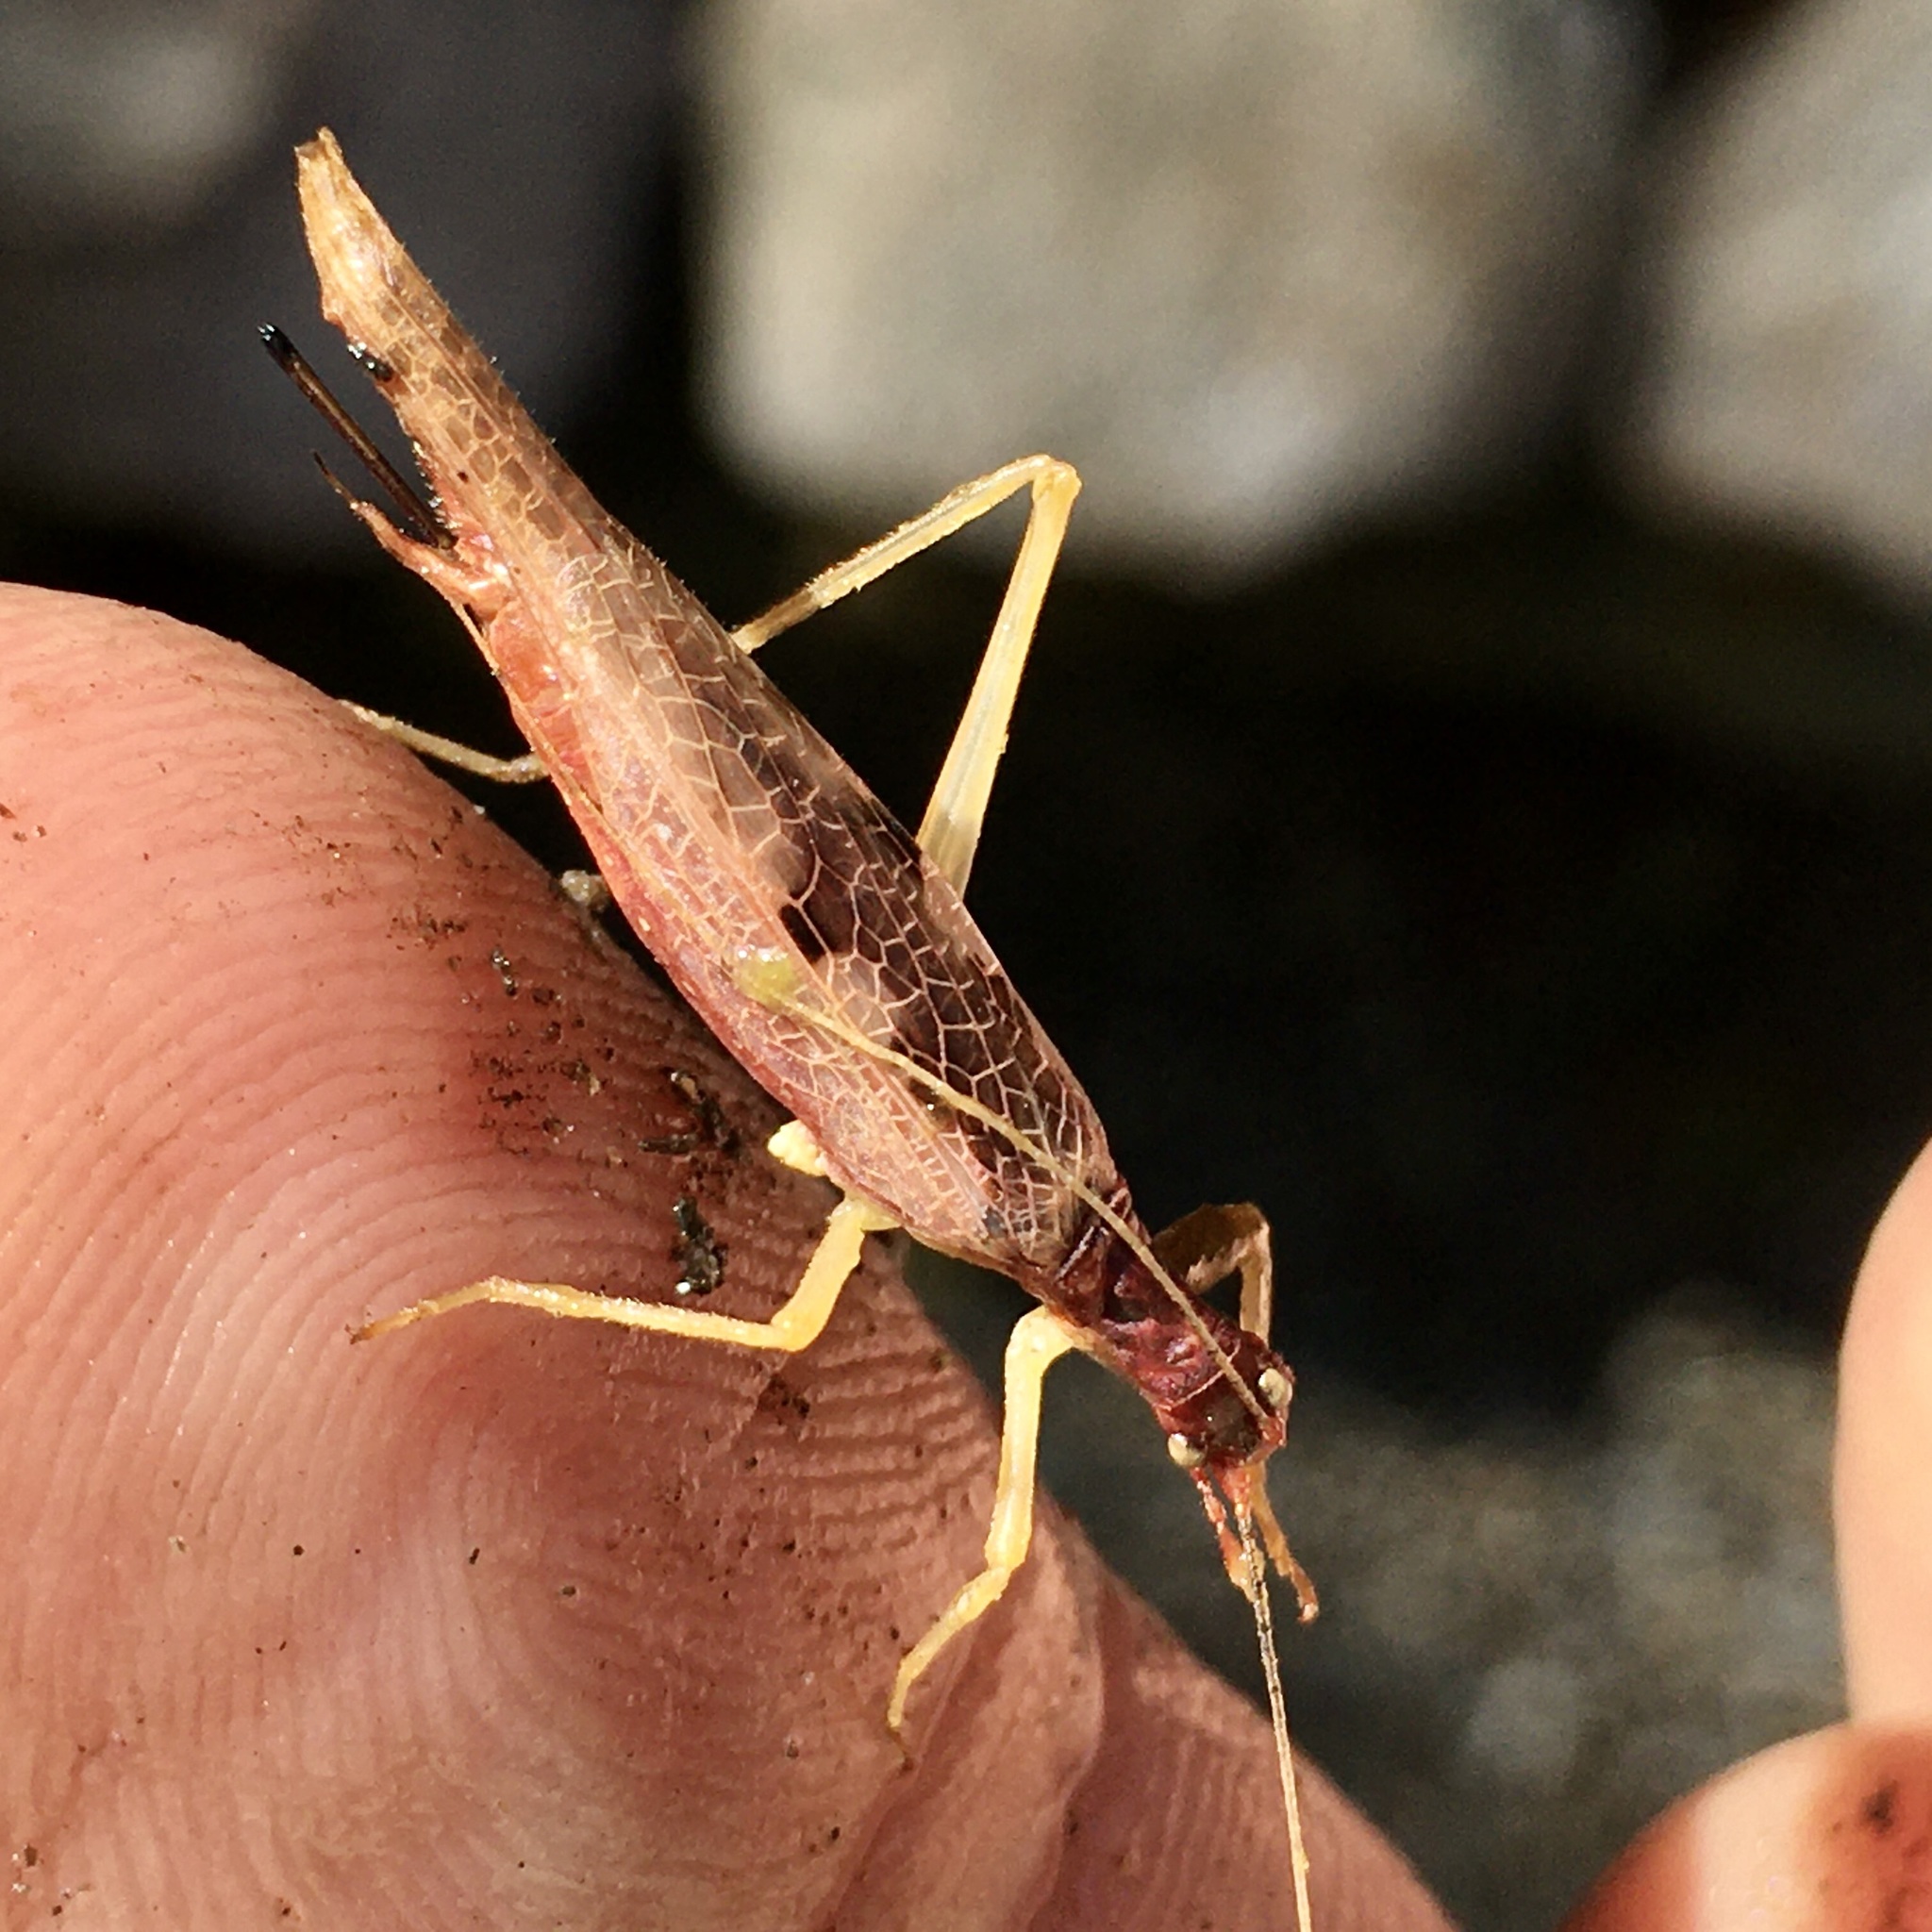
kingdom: Animalia
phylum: Arthropoda
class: Insecta
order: Orthoptera
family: Gryllidae
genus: Neoxabea
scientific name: Neoxabea bipunctata
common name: Two-spotted tree cricket
